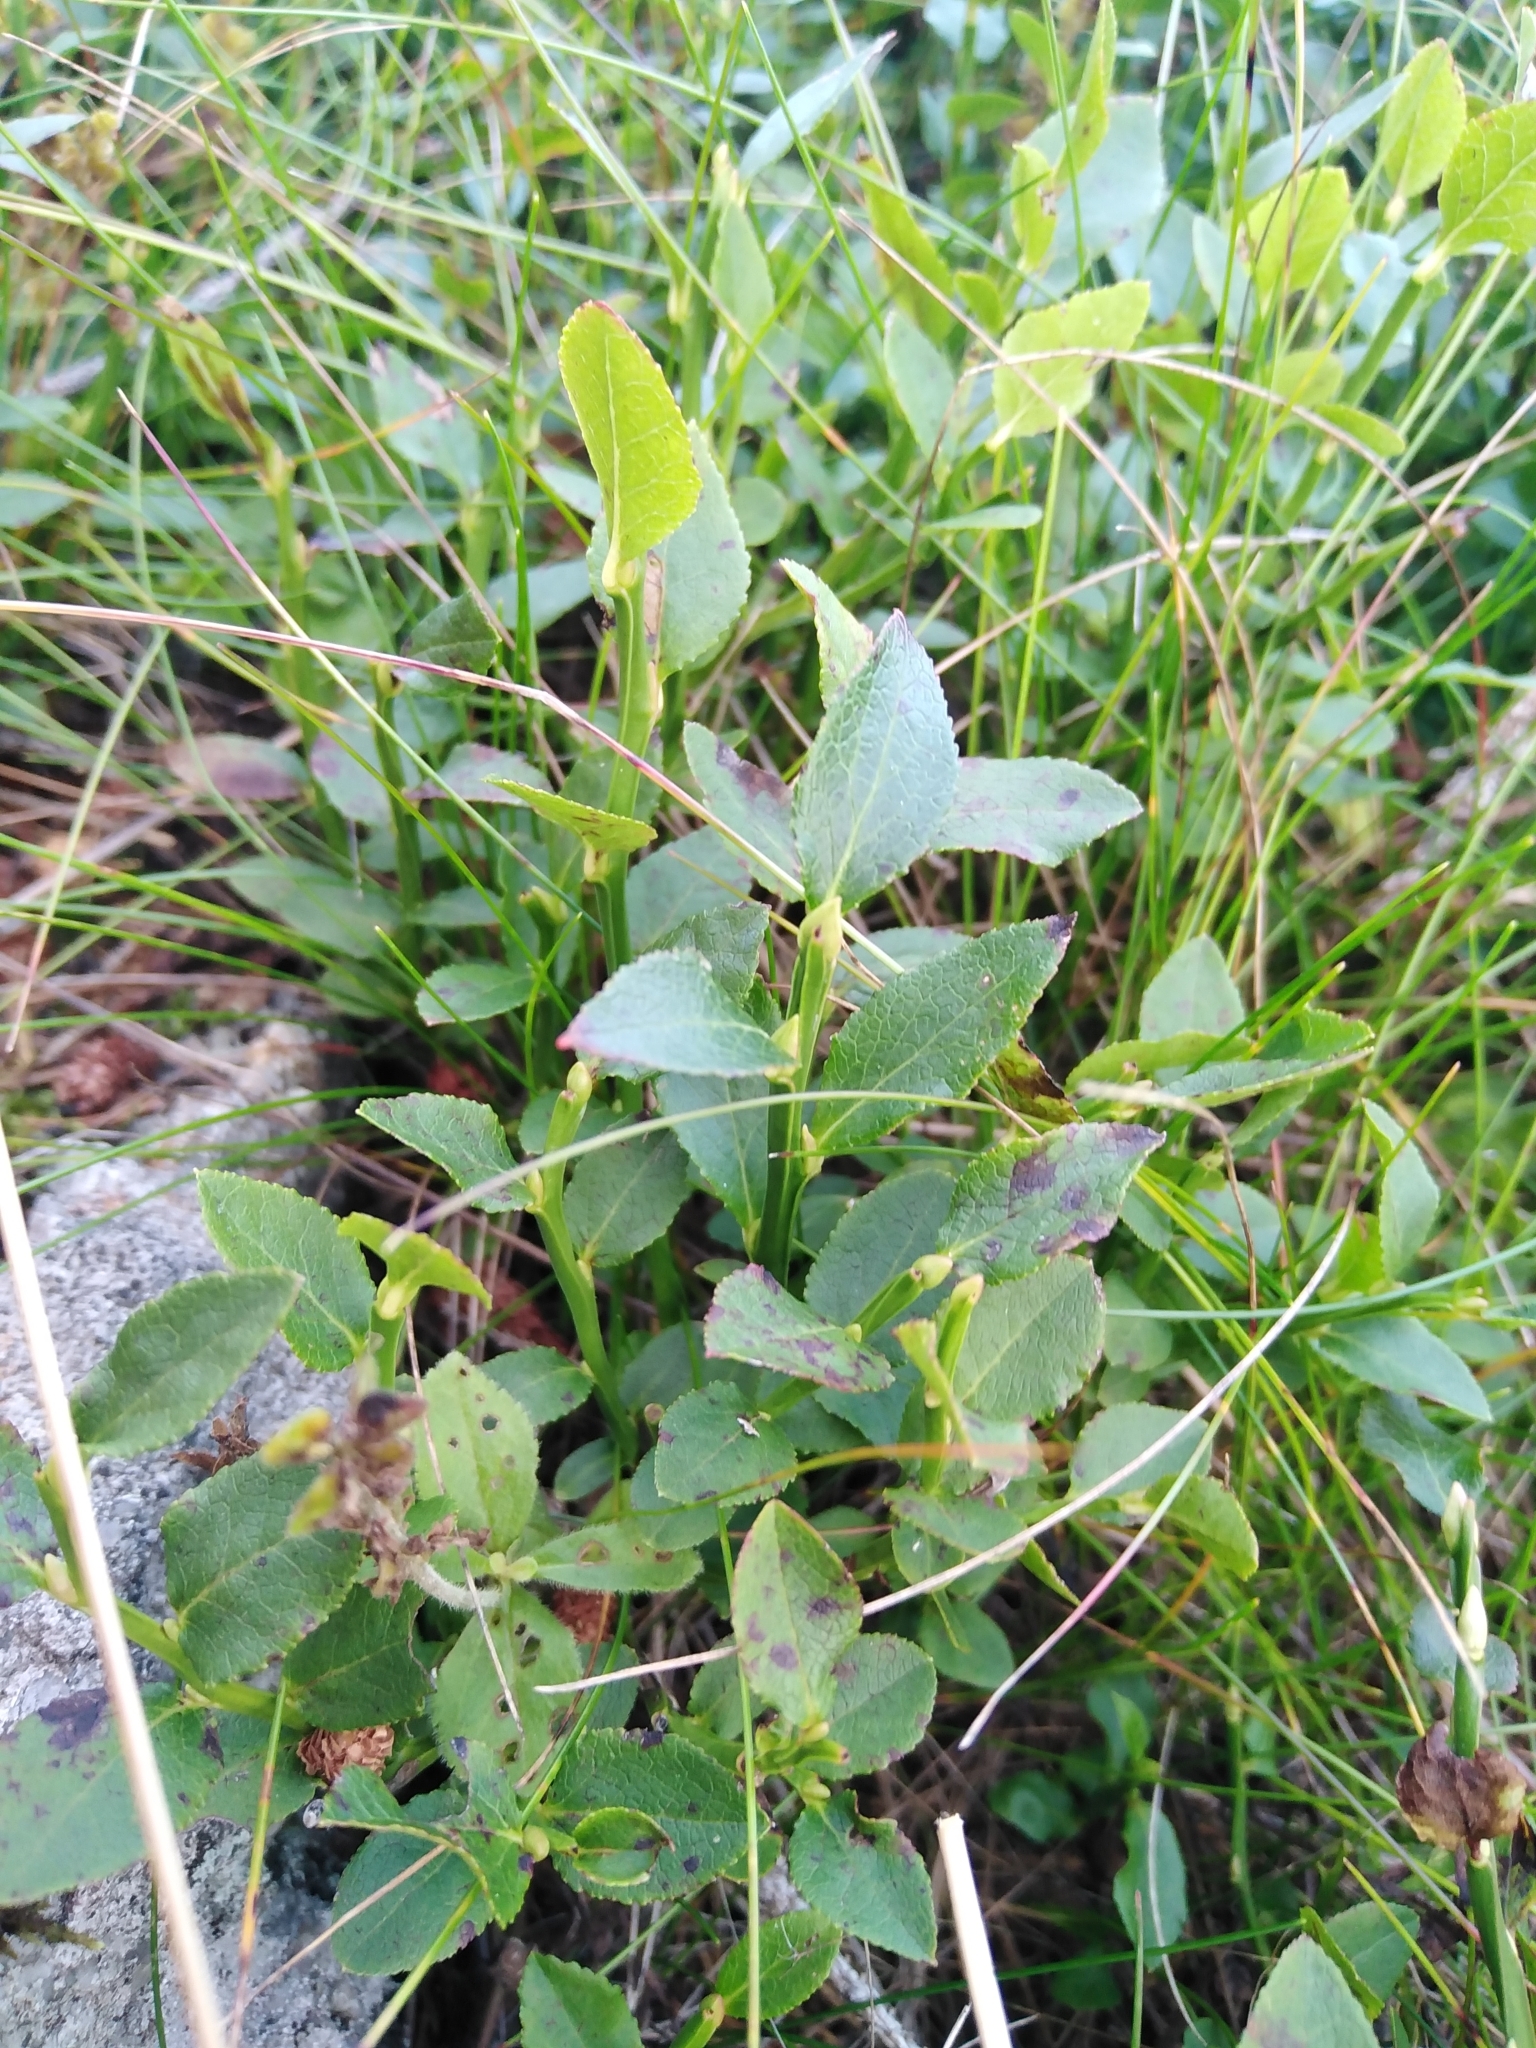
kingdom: Plantae
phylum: Tracheophyta
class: Magnoliopsida
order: Ericales
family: Ericaceae
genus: Vaccinium
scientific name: Vaccinium myrtillus
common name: Bilberry
